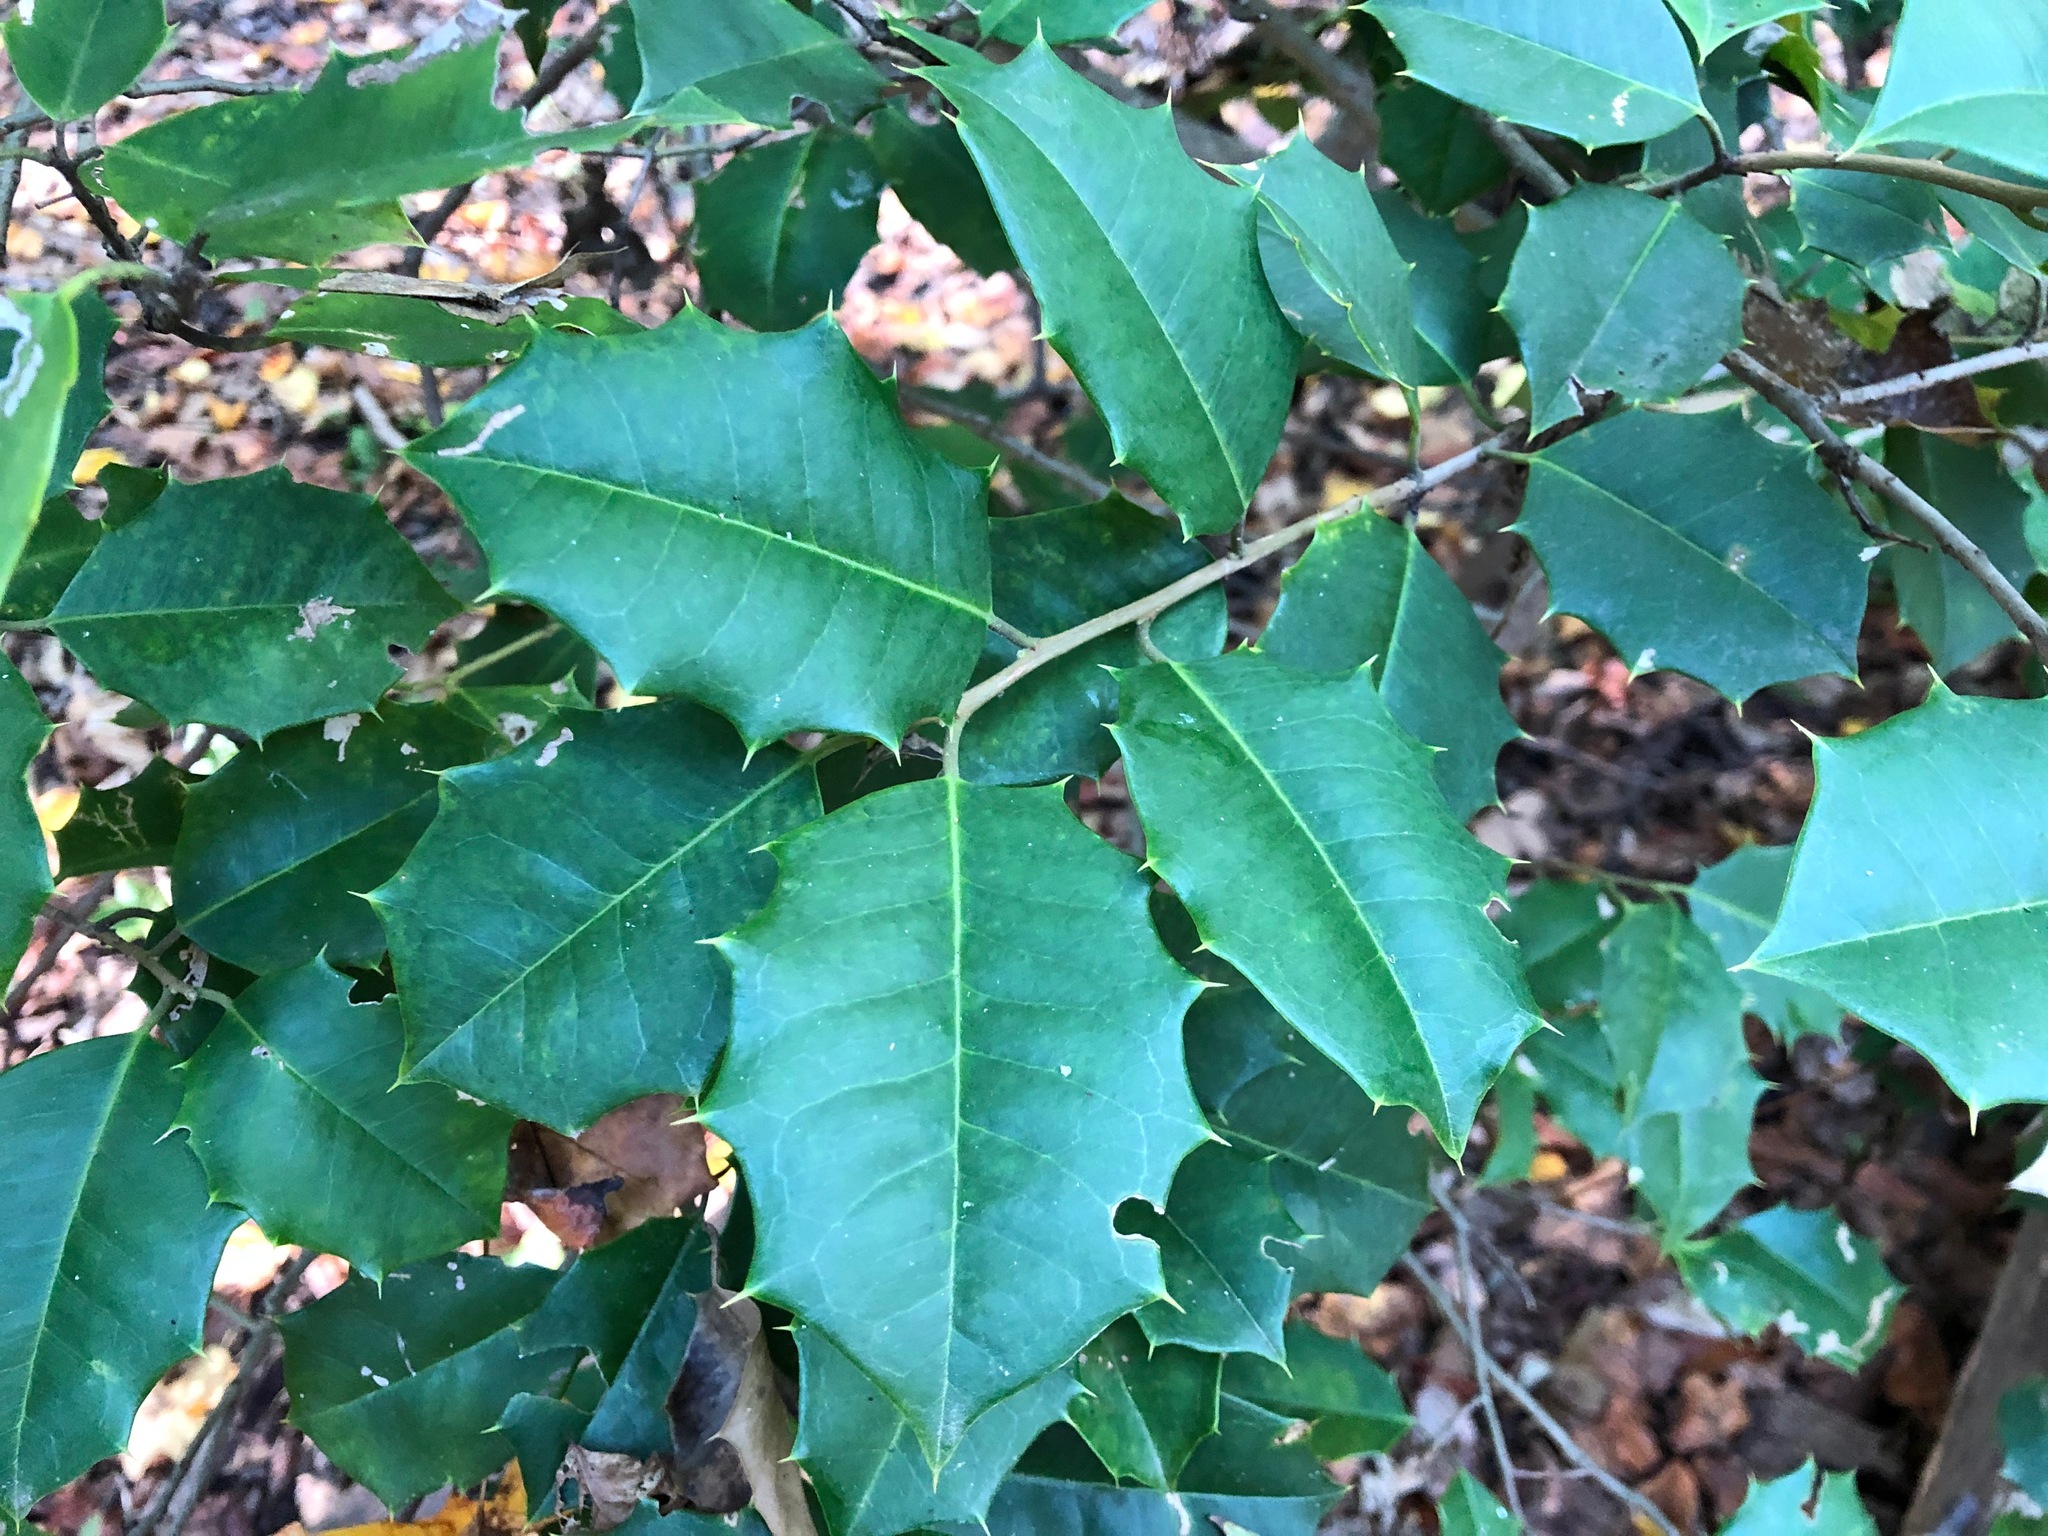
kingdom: Plantae
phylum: Tracheophyta
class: Magnoliopsida
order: Aquifoliales
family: Aquifoliaceae
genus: Ilex
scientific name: Ilex opaca
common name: American holly
